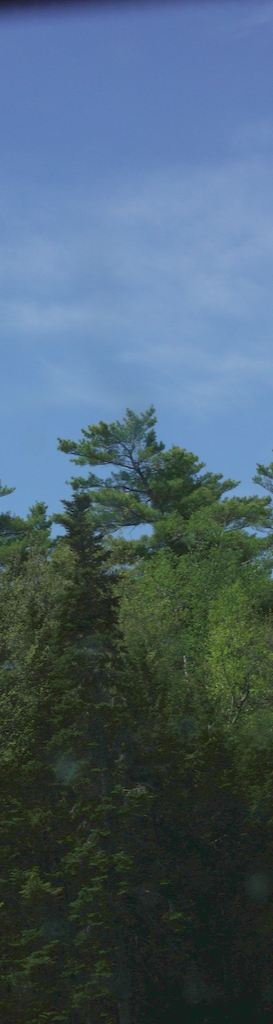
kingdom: Plantae
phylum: Tracheophyta
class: Pinopsida
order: Pinales
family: Pinaceae
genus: Pinus
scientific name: Pinus strobus
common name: Weymouth pine
